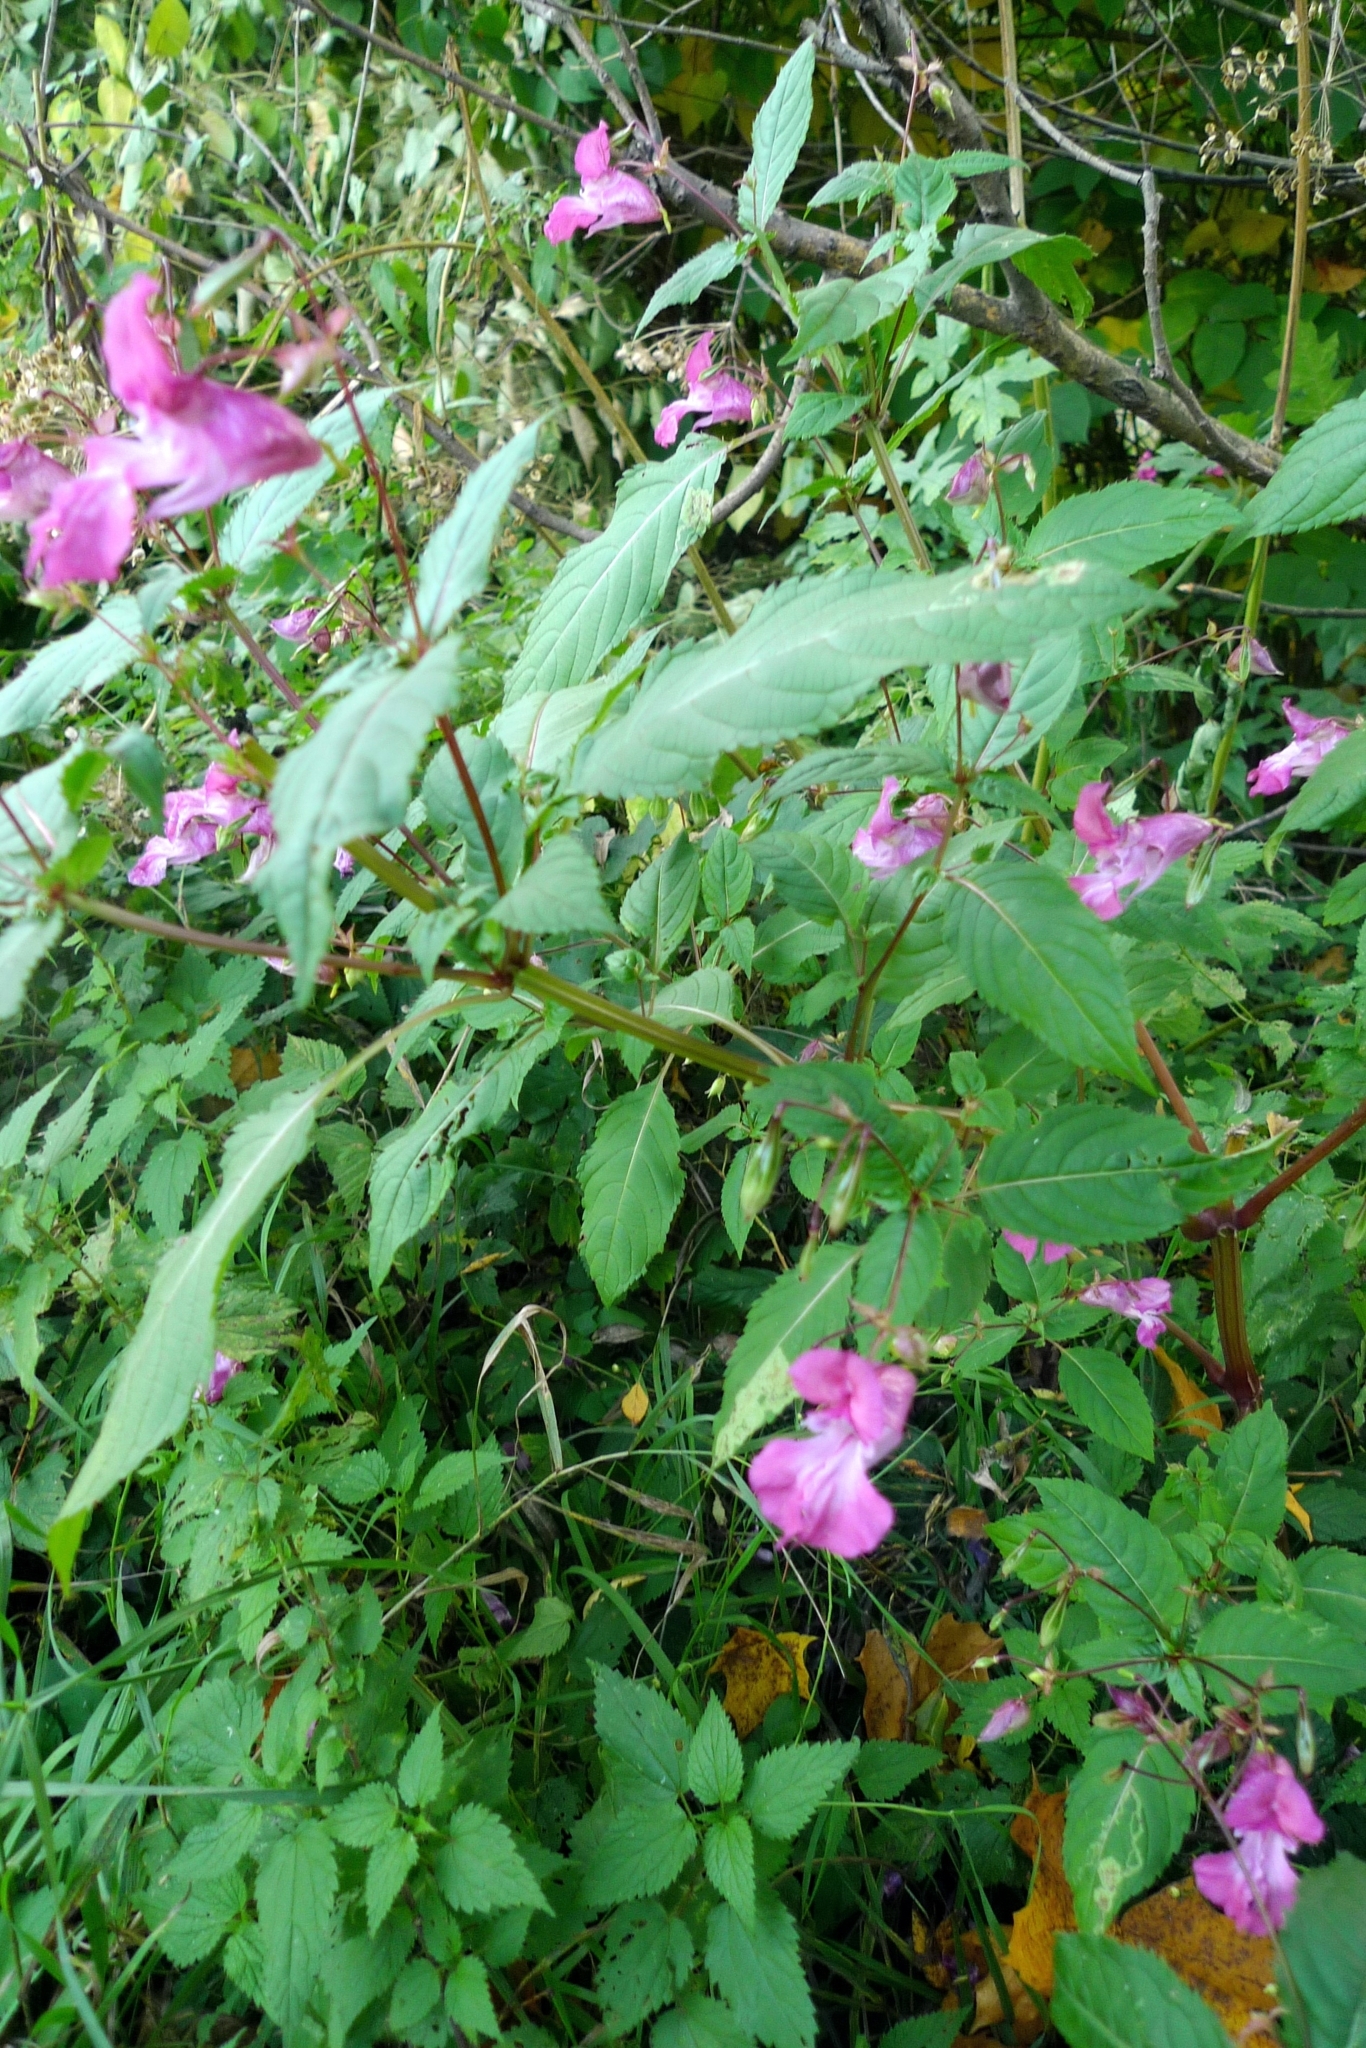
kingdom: Plantae
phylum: Tracheophyta
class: Magnoliopsida
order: Ericales
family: Balsaminaceae
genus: Impatiens
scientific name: Impatiens glandulifera
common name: Himalayan balsam
